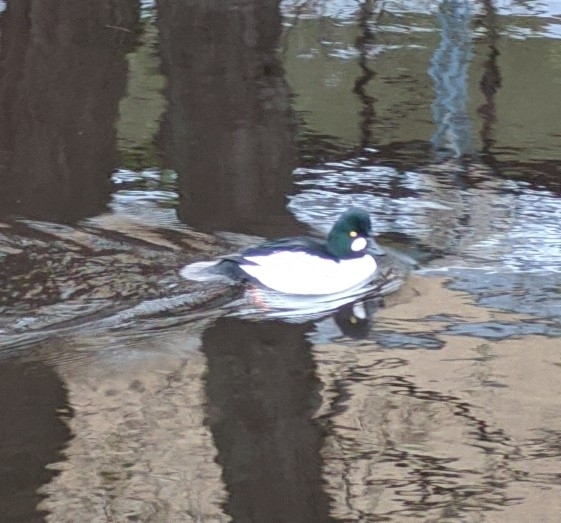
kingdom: Animalia
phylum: Chordata
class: Aves
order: Anseriformes
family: Anatidae
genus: Bucephala
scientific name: Bucephala clangula
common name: Common goldeneye
